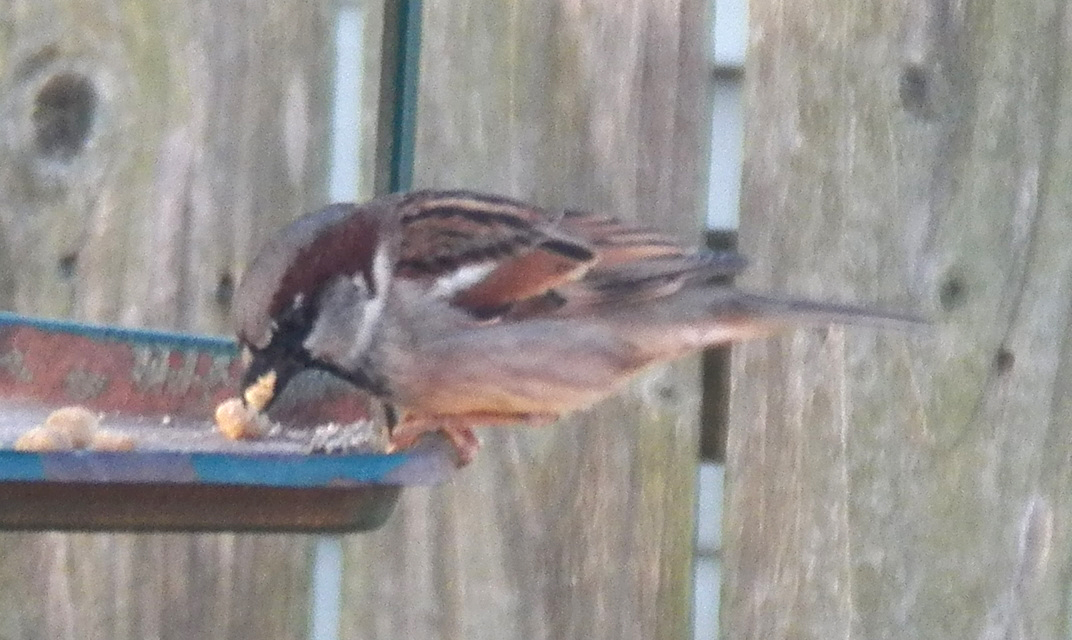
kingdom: Animalia
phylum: Chordata
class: Aves
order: Passeriformes
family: Passeridae
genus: Passer
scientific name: Passer domesticus
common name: House sparrow
